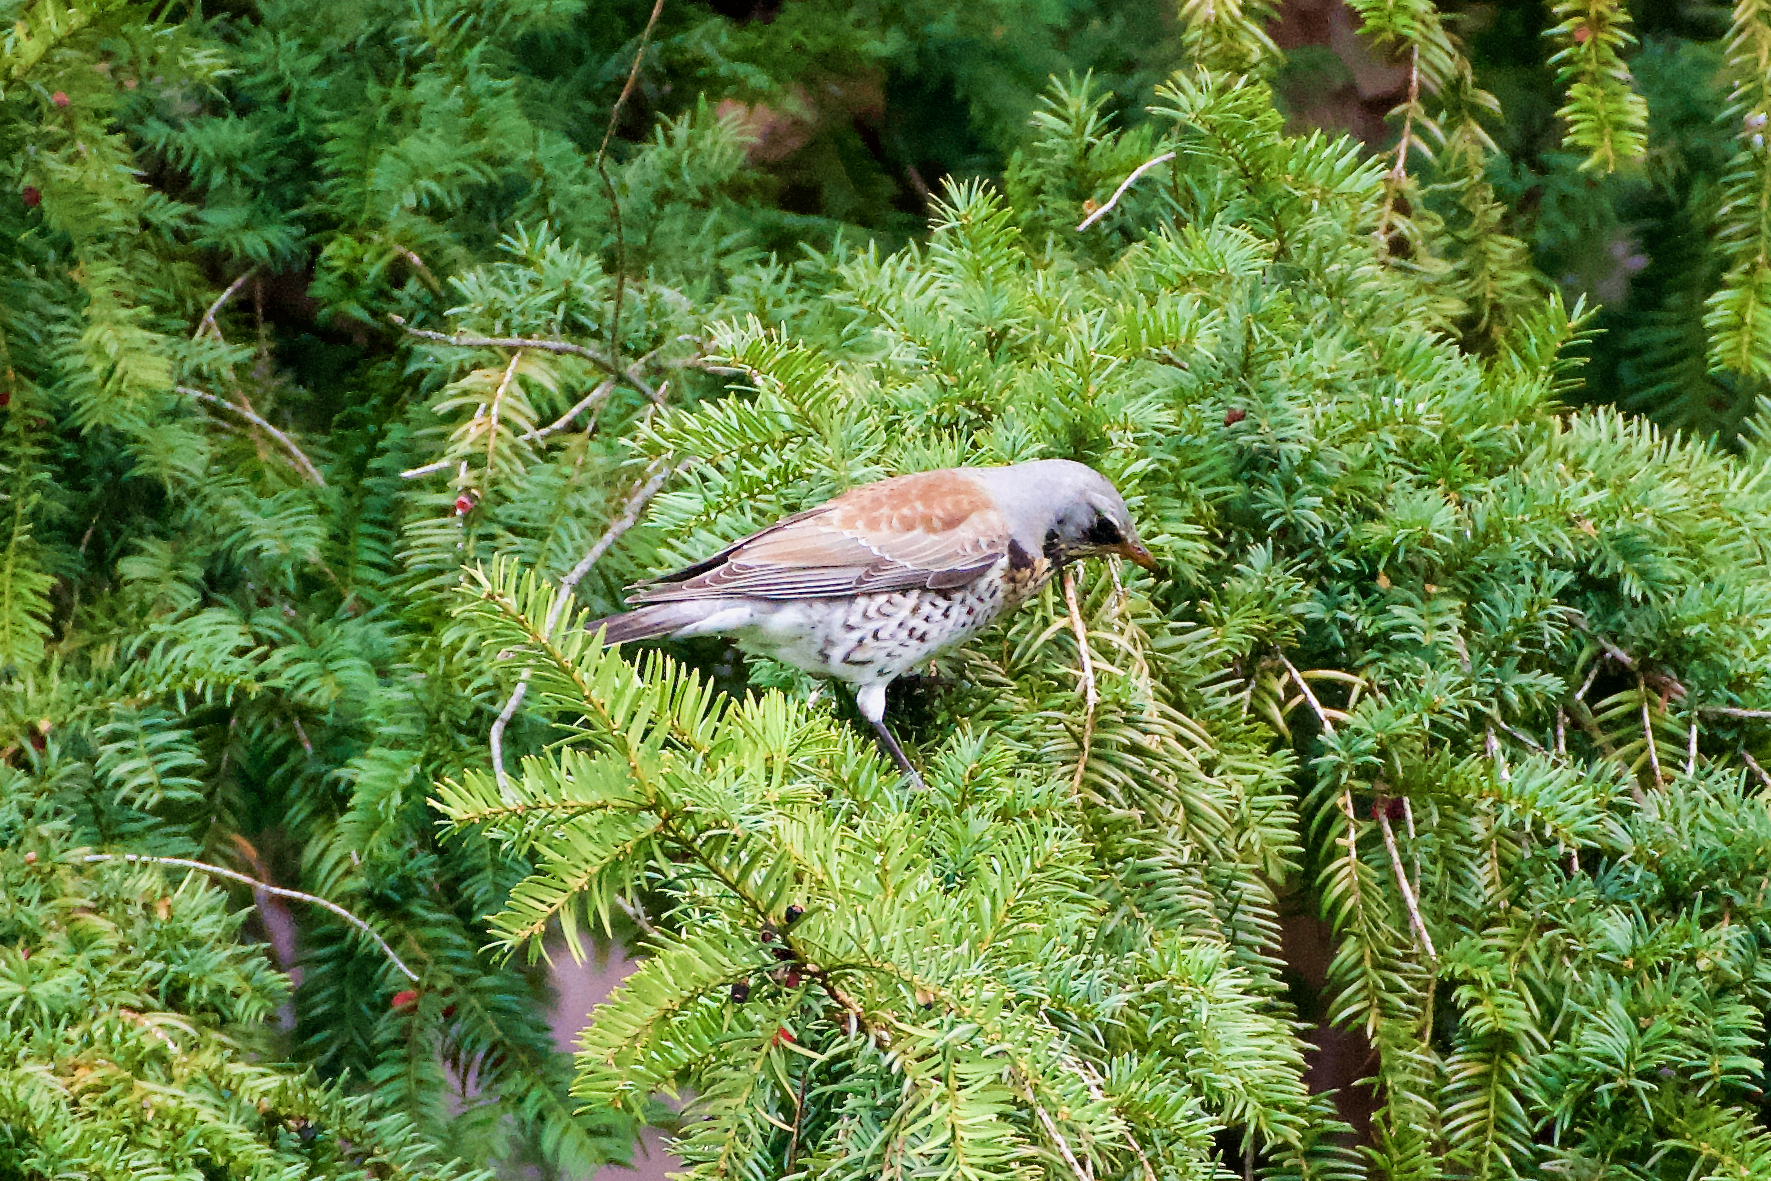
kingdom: Animalia
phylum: Chordata
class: Aves
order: Passeriformes
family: Turdidae
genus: Turdus
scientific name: Turdus pilaris
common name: Fieldfare
